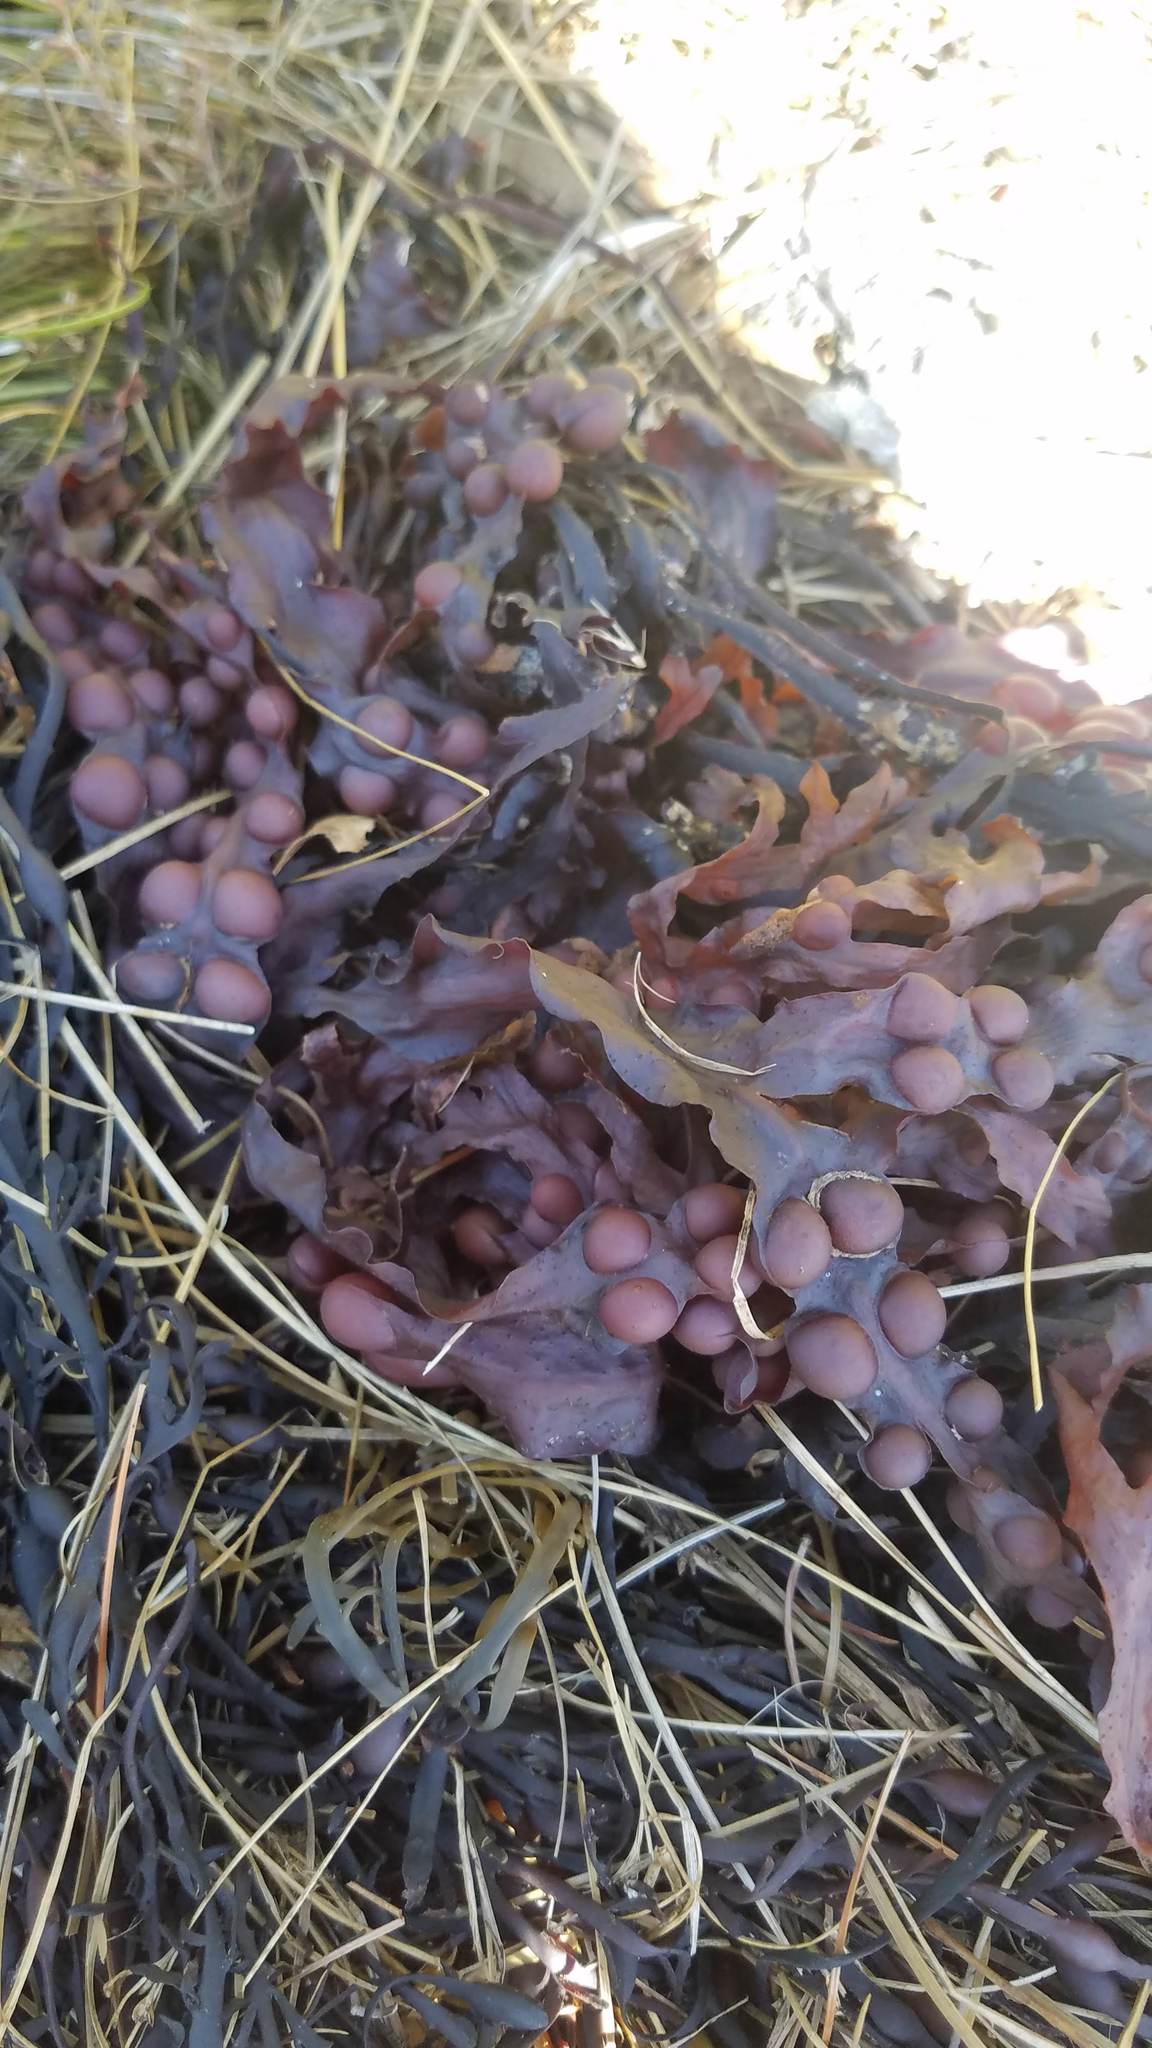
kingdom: Chromista
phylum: Ochrophyta
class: Phaeophyceae
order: Fucales
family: Fucaceae
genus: Fucus
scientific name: Fucus vesiculosus
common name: Bladder wrack
